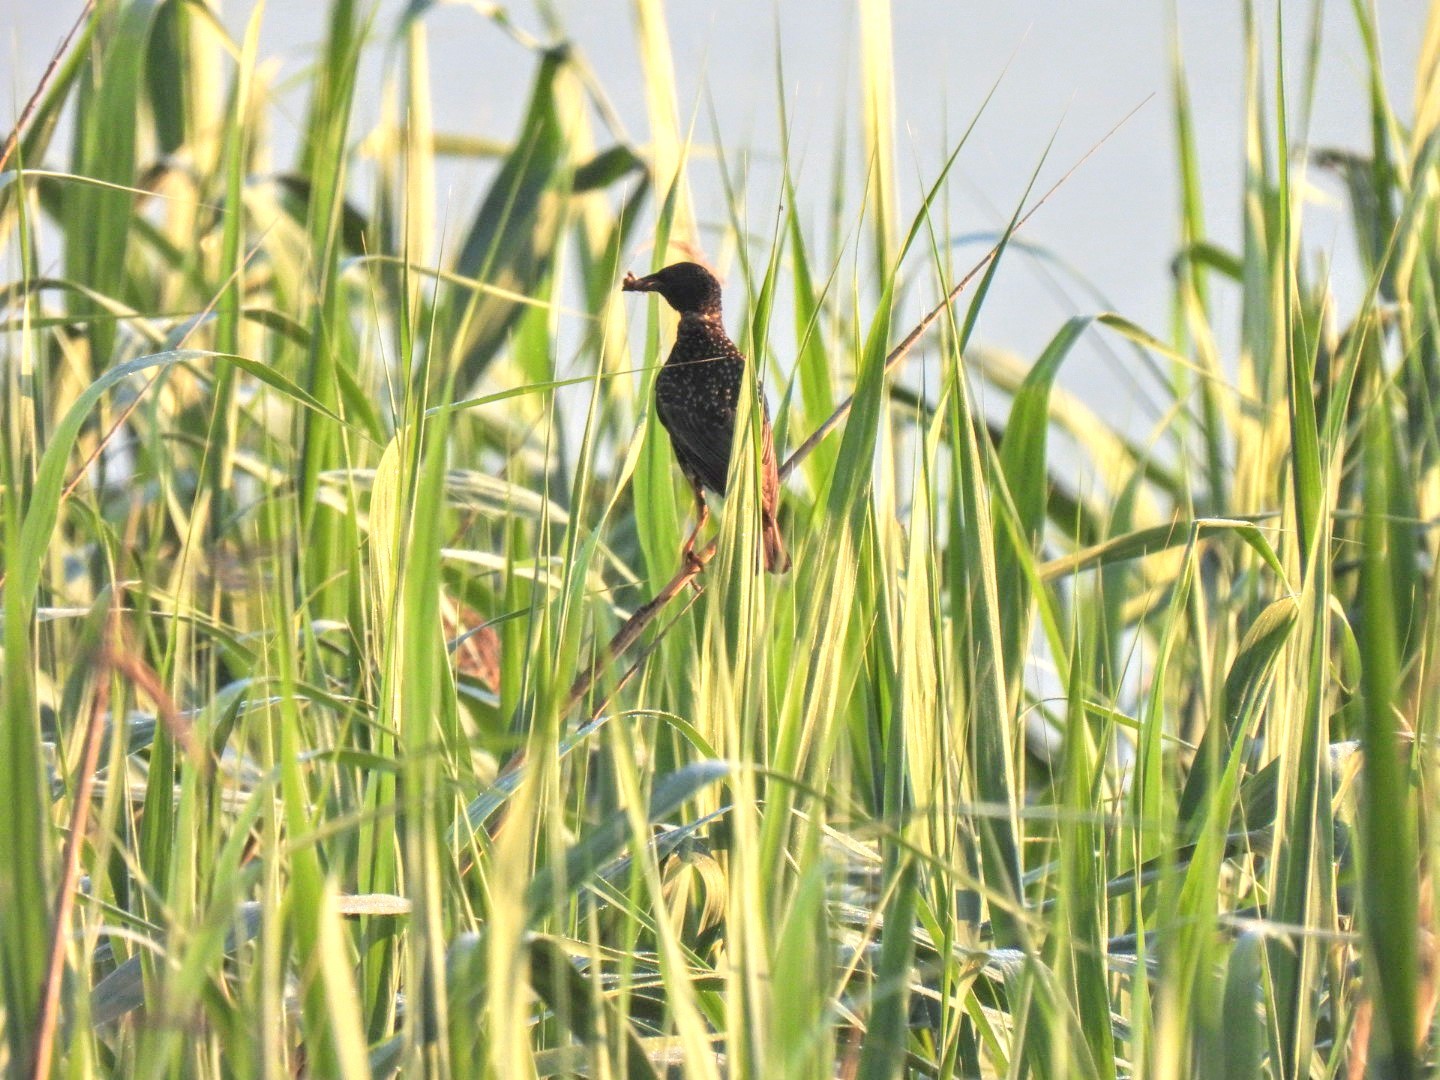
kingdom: Animalia
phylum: Chordata
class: Aves
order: Passeriformes
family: Sturnidae
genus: Sturnus
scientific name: Sturnus vulgaris
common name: Common starling
